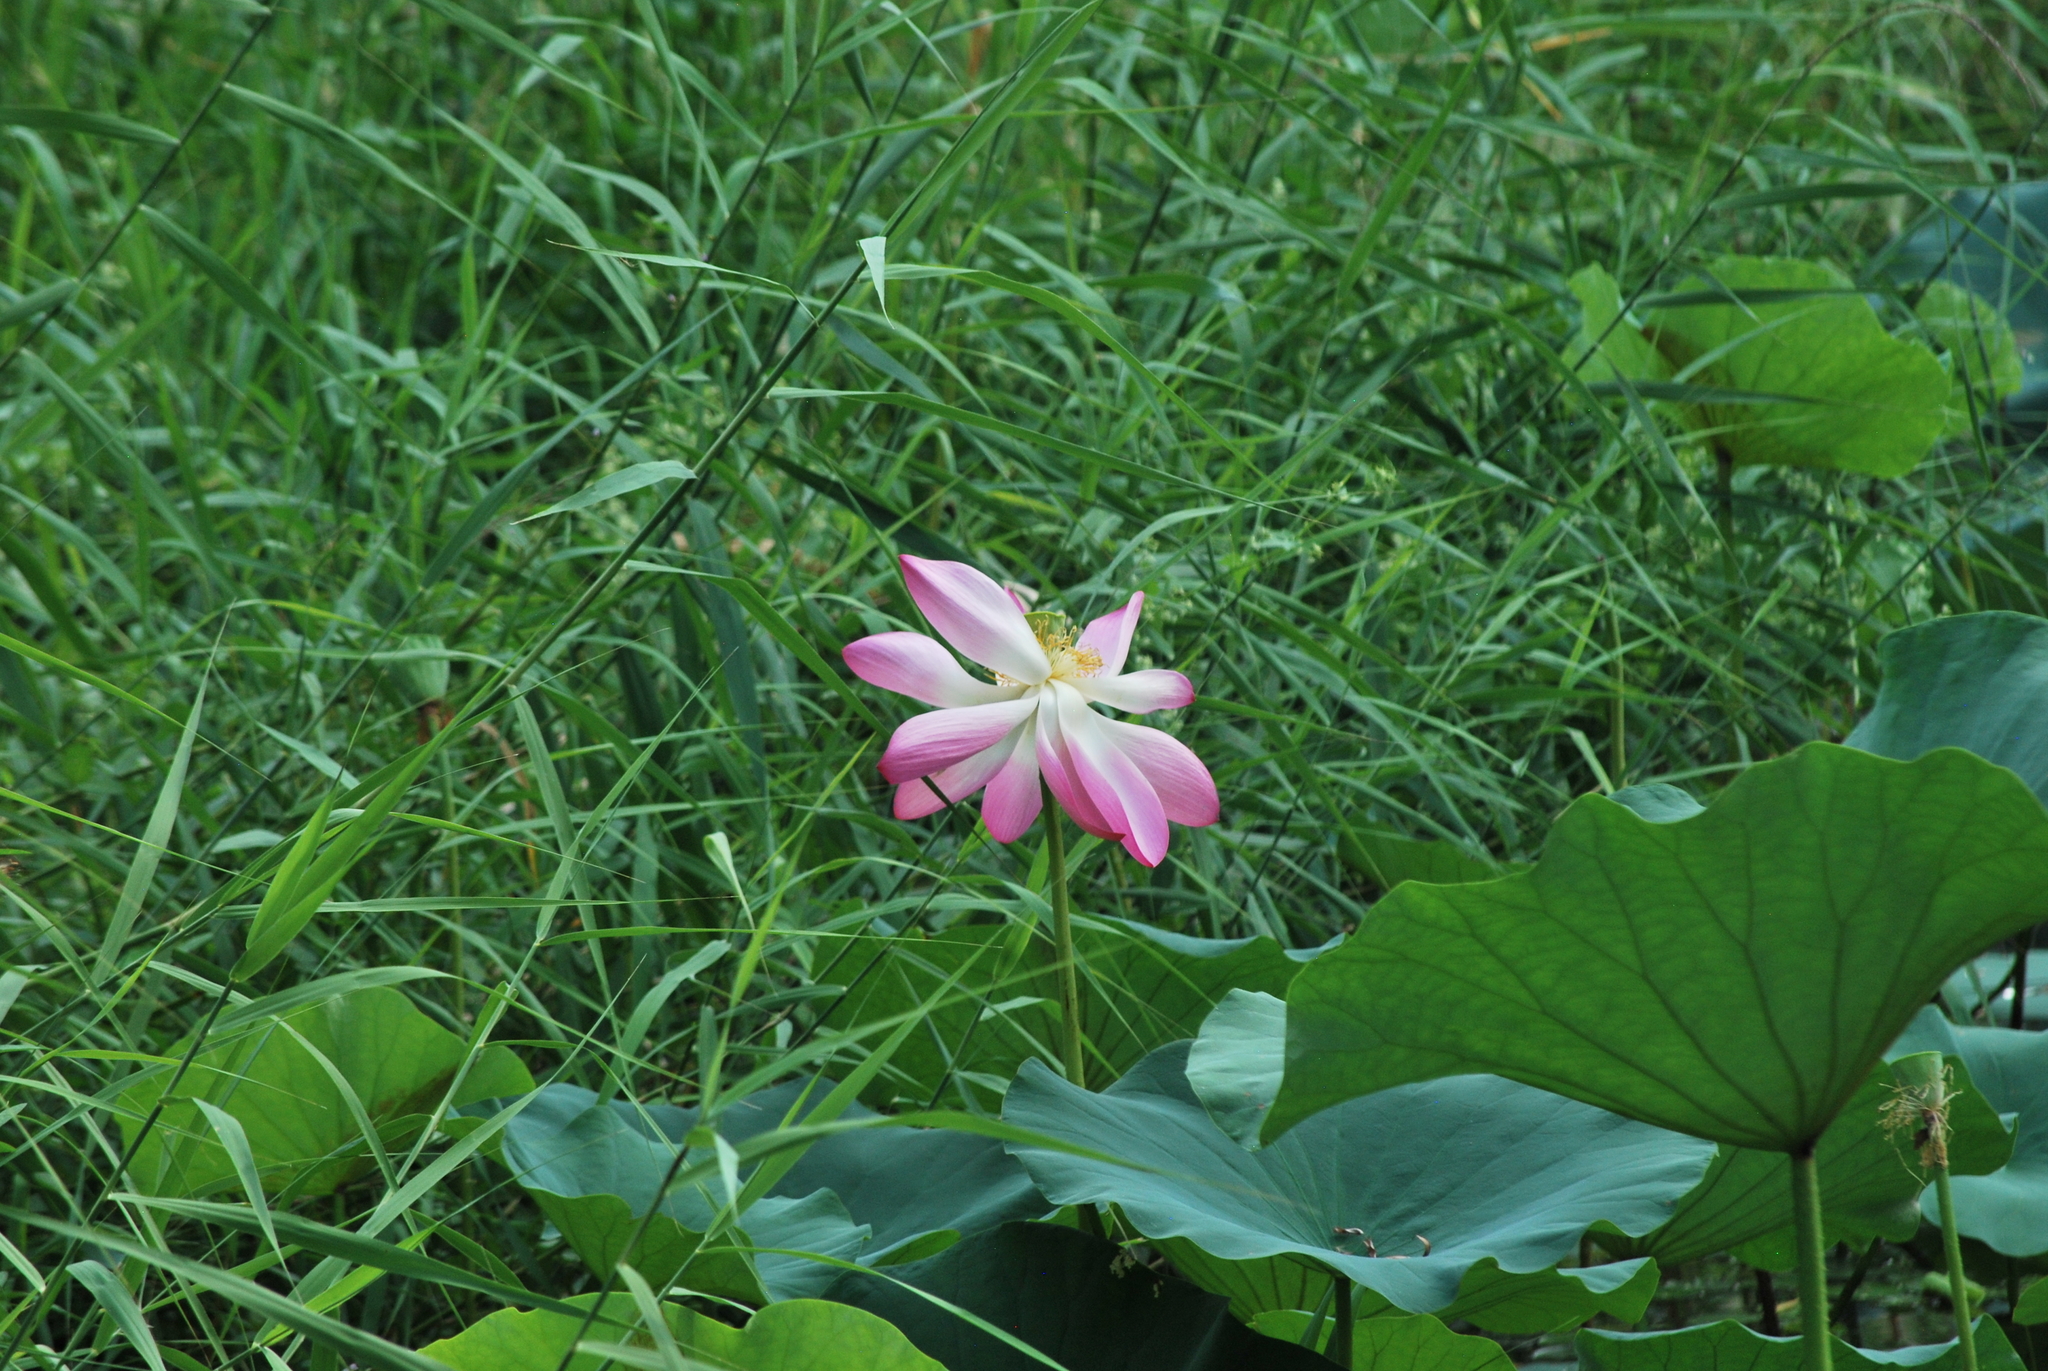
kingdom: Plantae
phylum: Tracheophyta
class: Magnoliopsida
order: Proteales
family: Nelumbonaceae
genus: Nelumbo
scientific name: Nelumbo nucifera
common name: Sacred lotus
